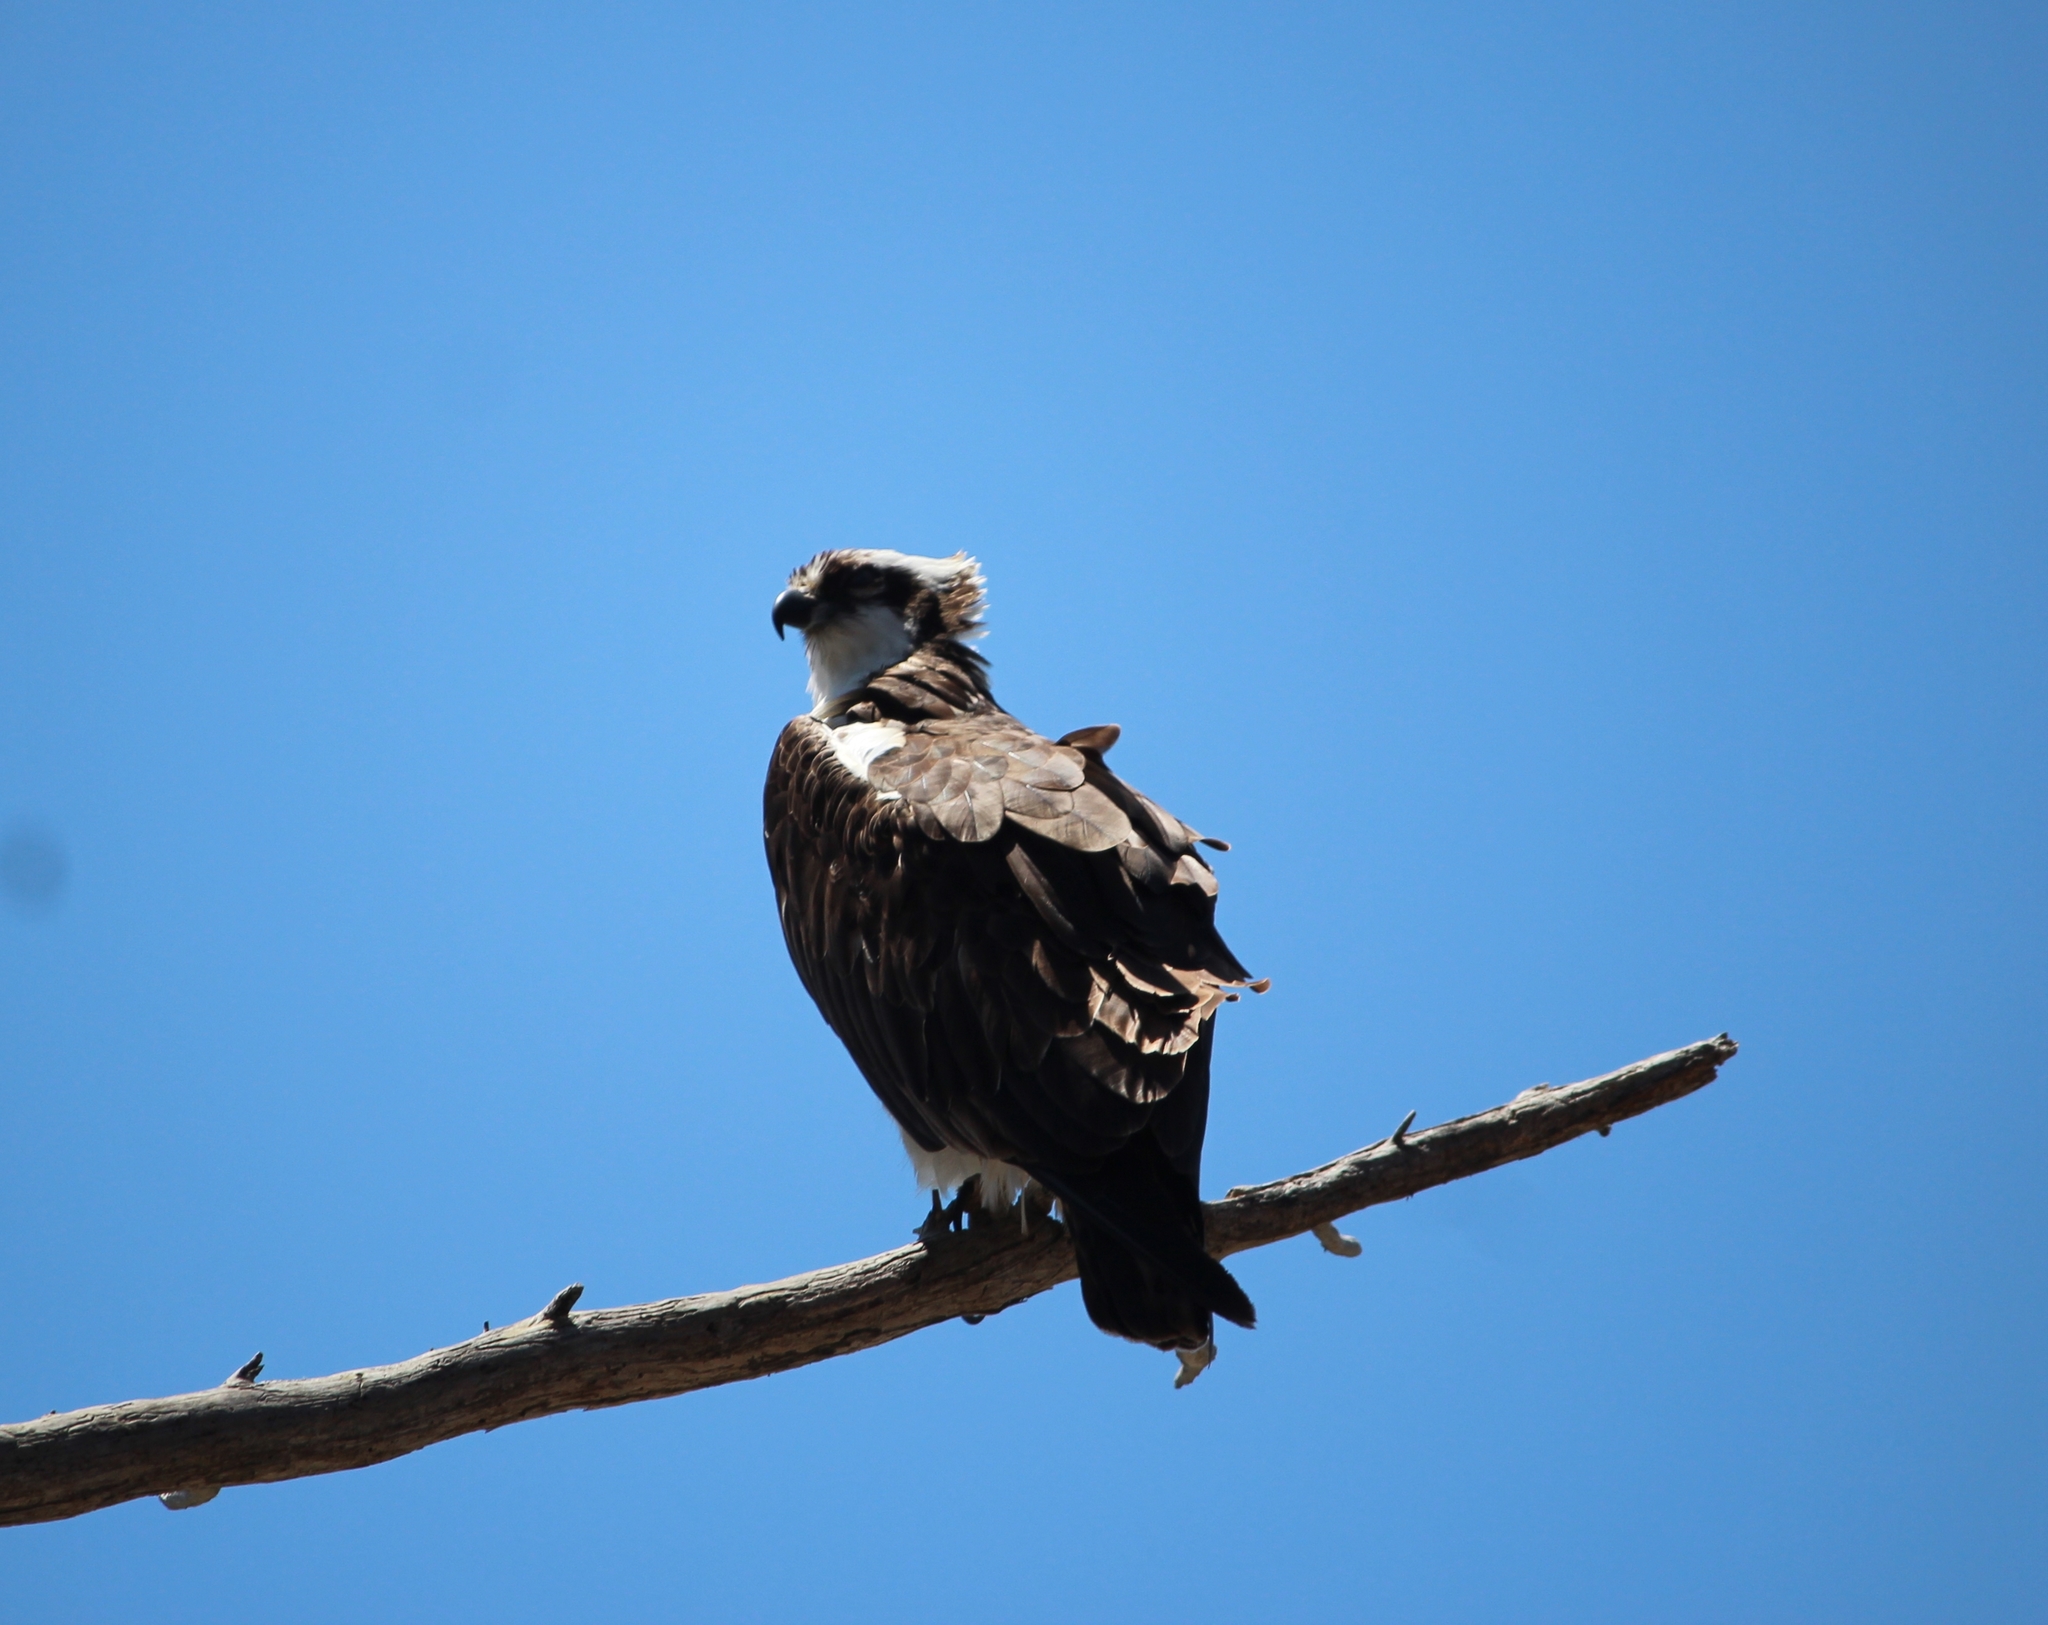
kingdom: Animalia
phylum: Chordata
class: Aves
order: Accipitriformes
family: Pandionidae
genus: Pandion
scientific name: Pandion haliaetus
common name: Osprey
